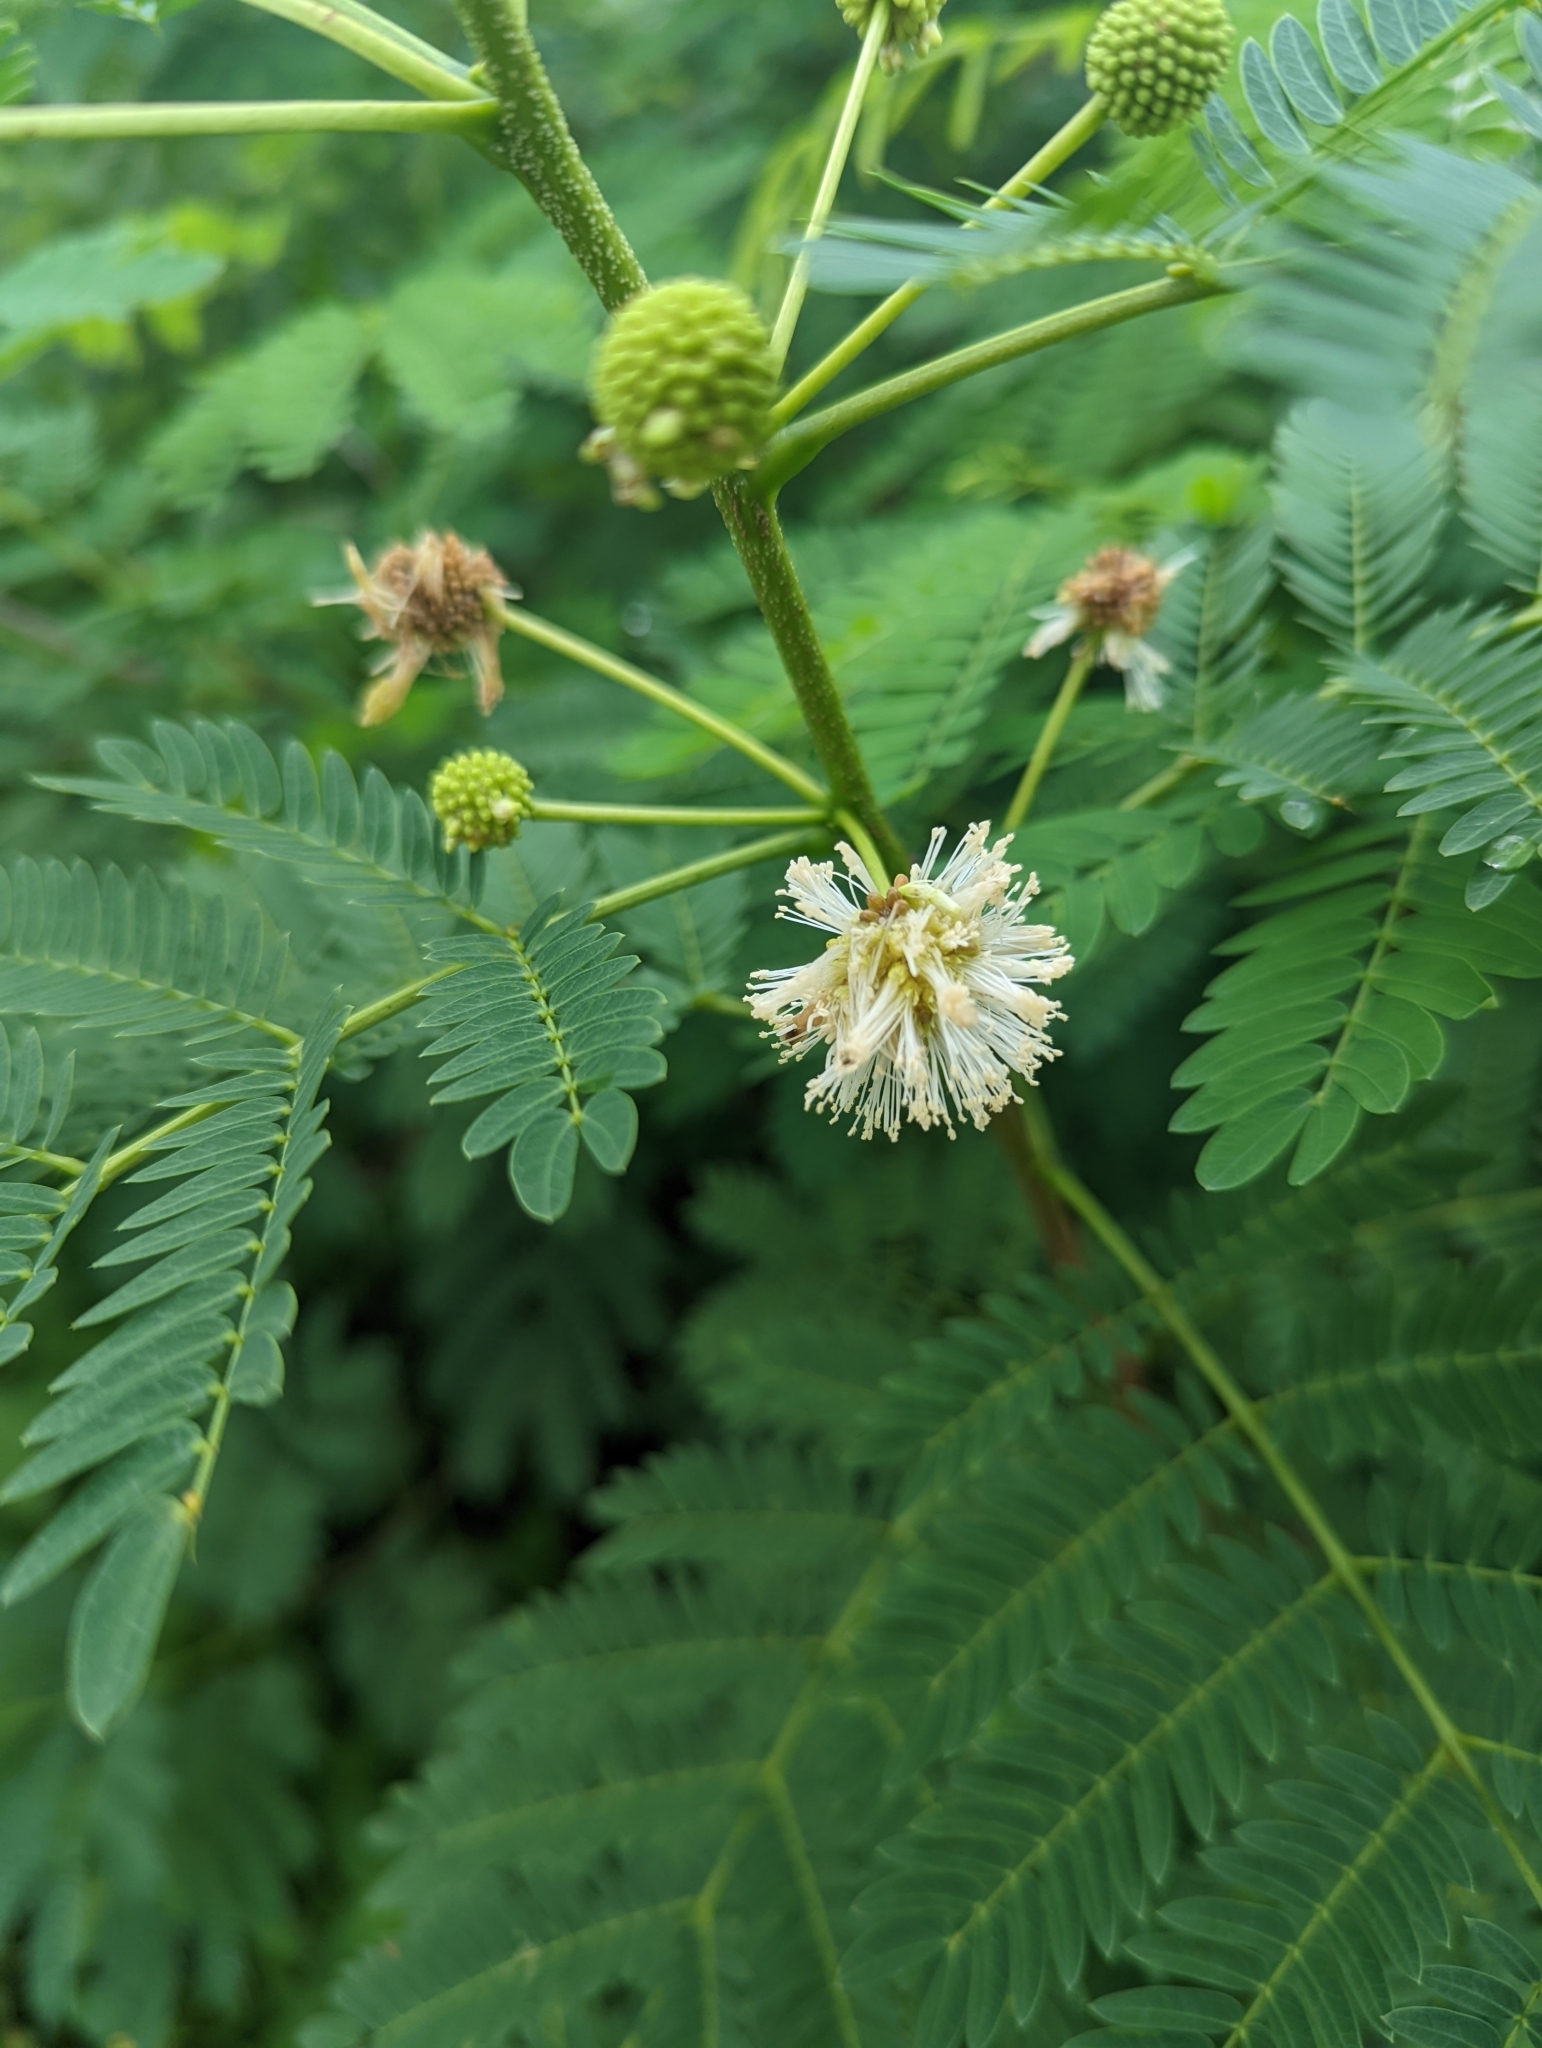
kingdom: Plantae
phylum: Tracheophyta
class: Magnoliopsida
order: Fabales
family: Fabaceae
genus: Leucaena
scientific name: Leucaena leucocephala
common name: White leadtree
